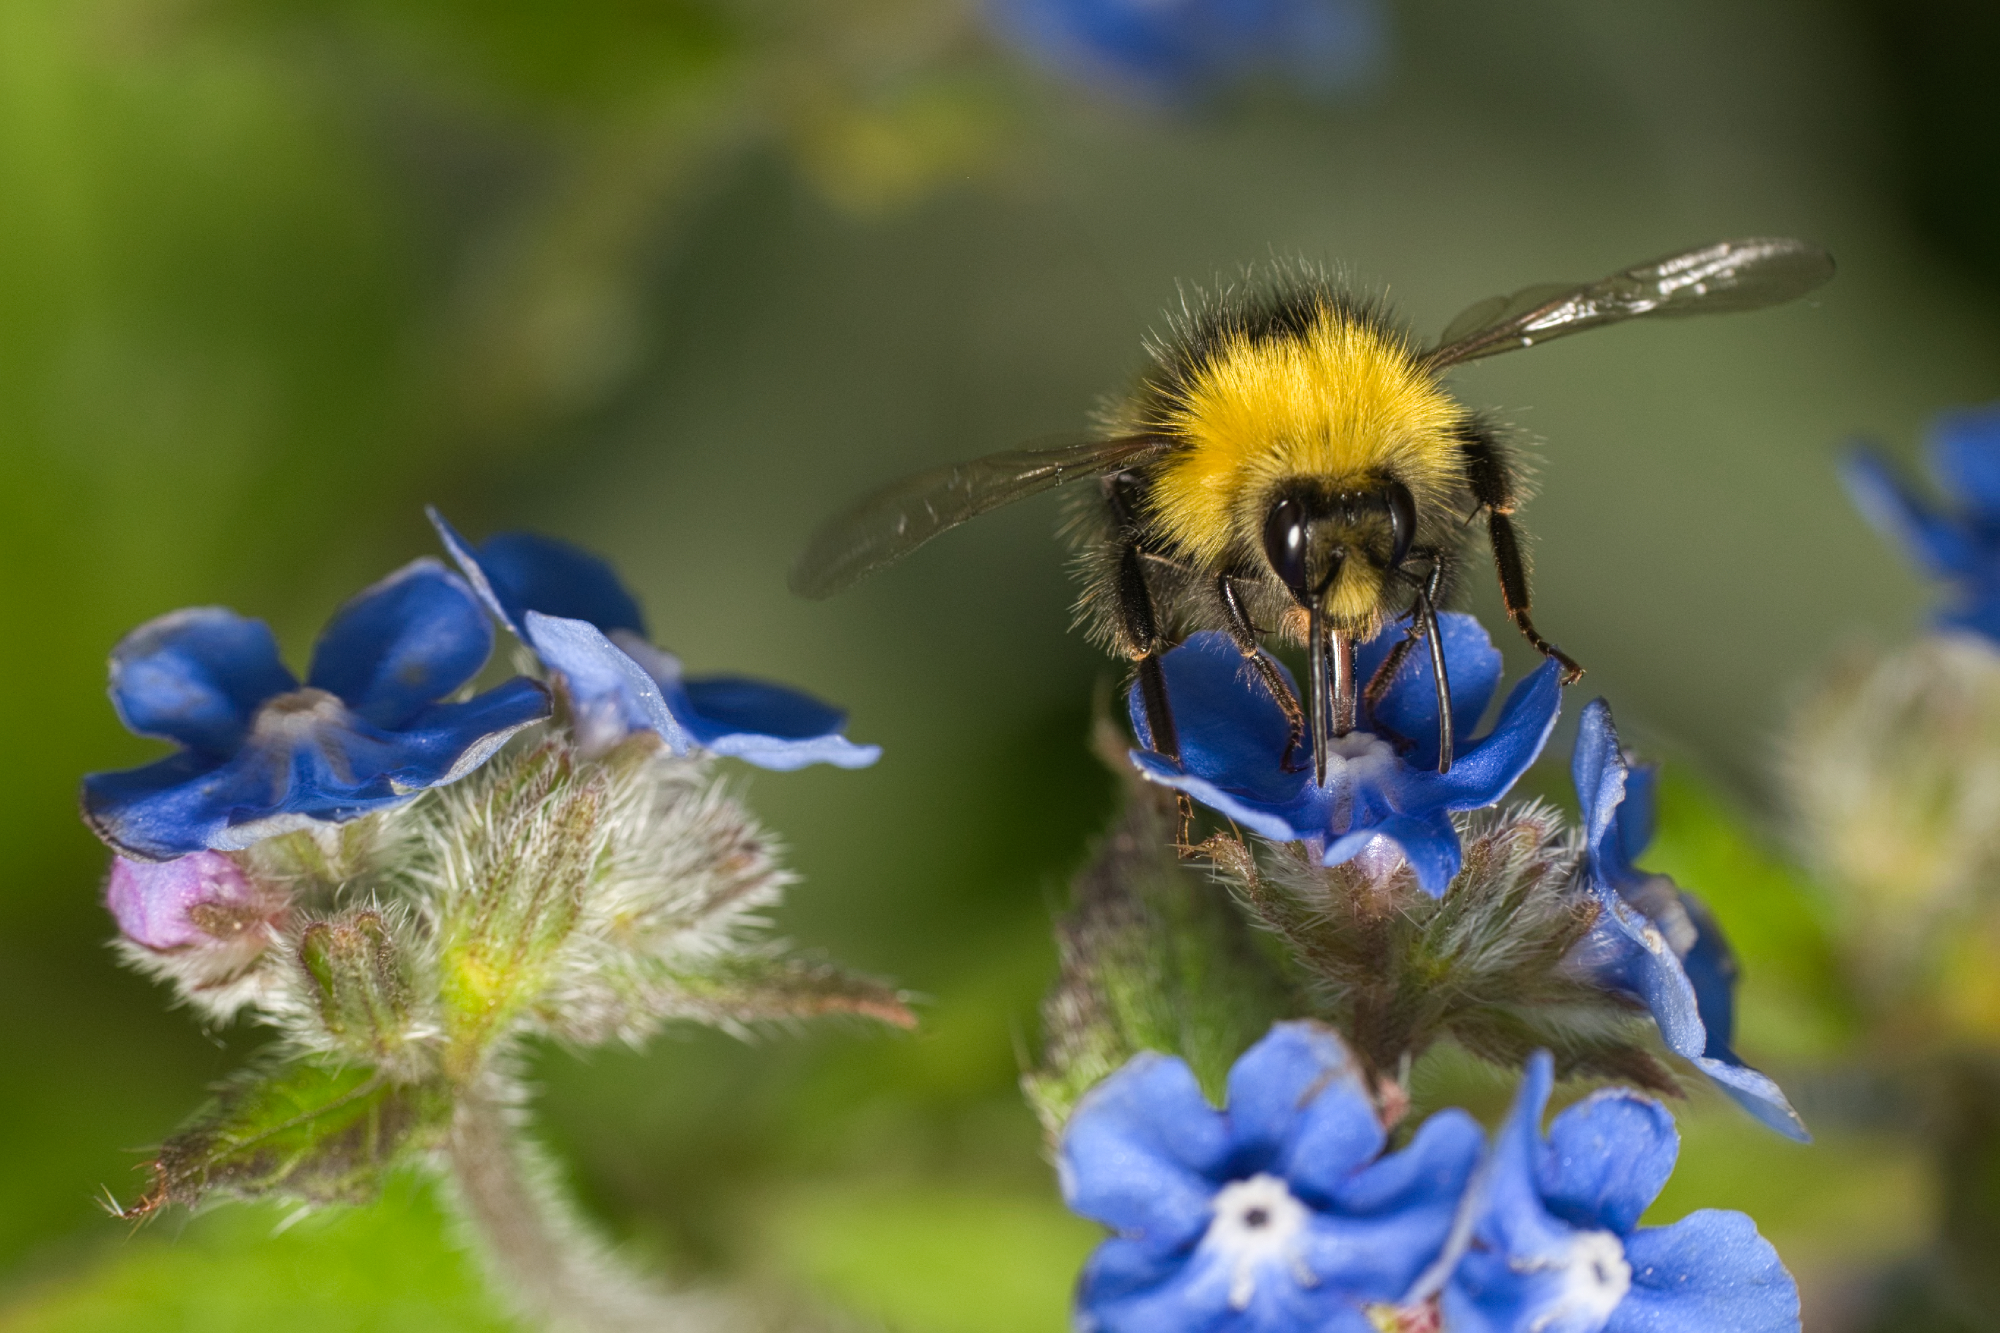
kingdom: Animalia
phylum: Arthropoda
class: Insecta
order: Hymenoptera
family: Apidae
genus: Bombus
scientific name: Bombus pratorum
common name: Early humble-bee
